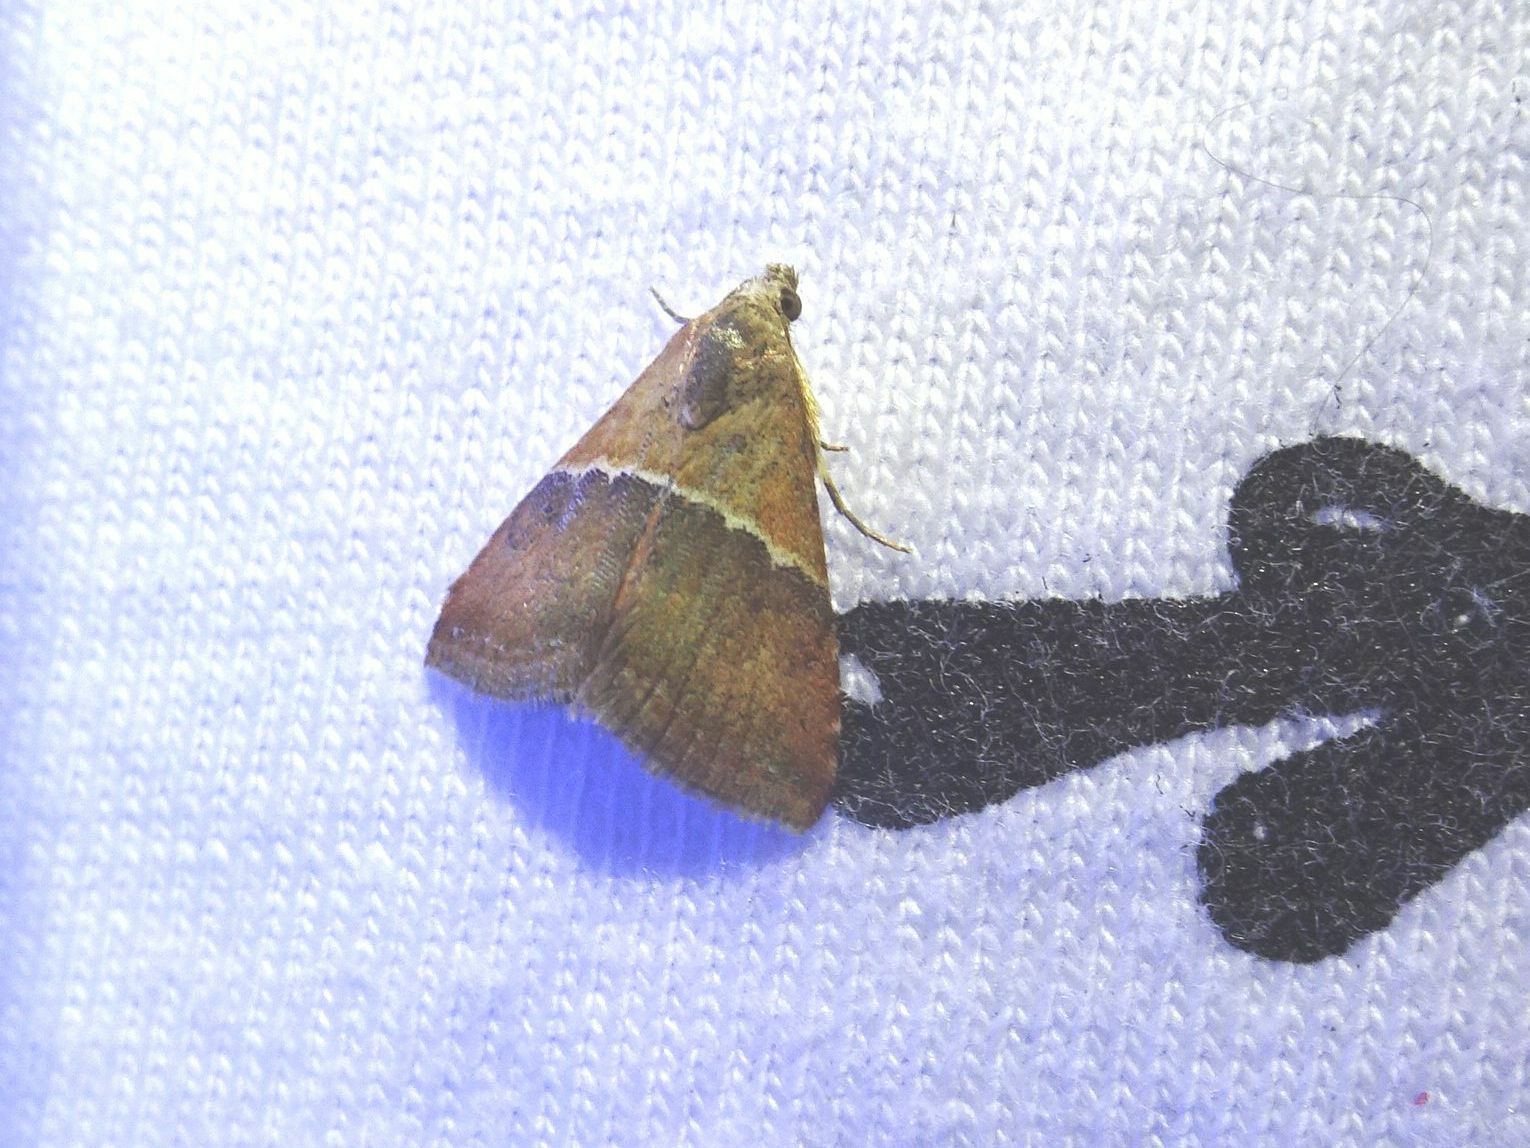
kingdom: Animalia
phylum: Arthropoda
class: Insecta
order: Lepidoptera
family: Noctuidae
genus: Eublemma
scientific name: Eublemma caffrorum
